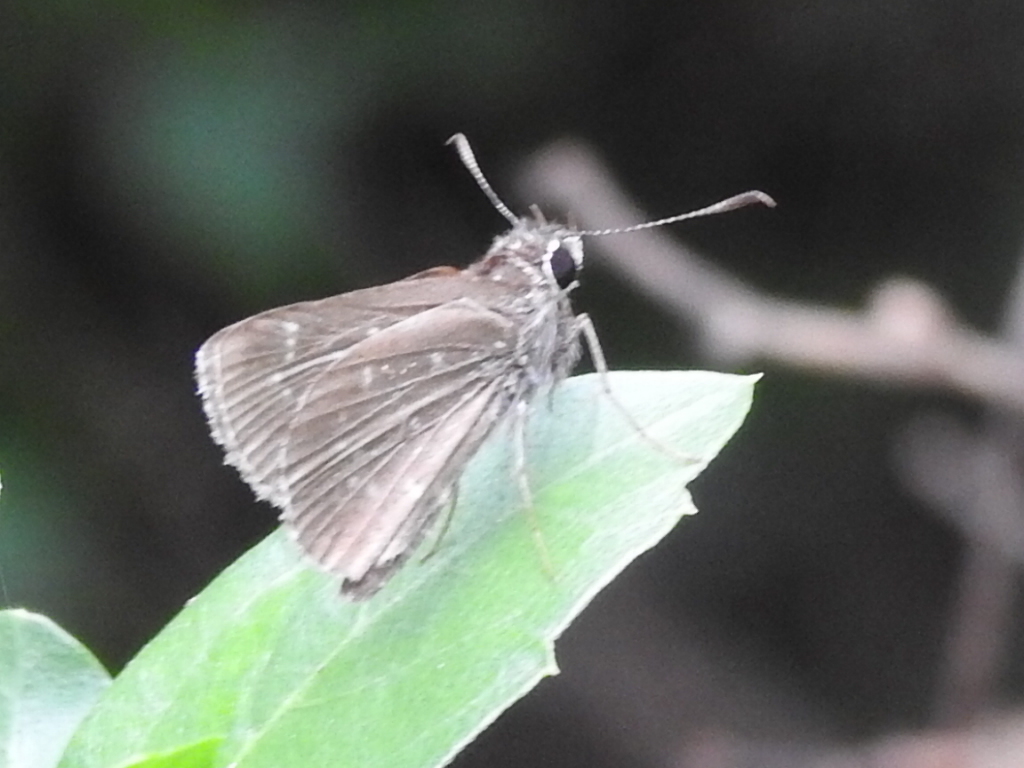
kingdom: Animalia
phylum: Arthropoda
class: Insecta
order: Lepidoptera
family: Hesperiidae
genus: Mastor
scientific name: Mastor celia
